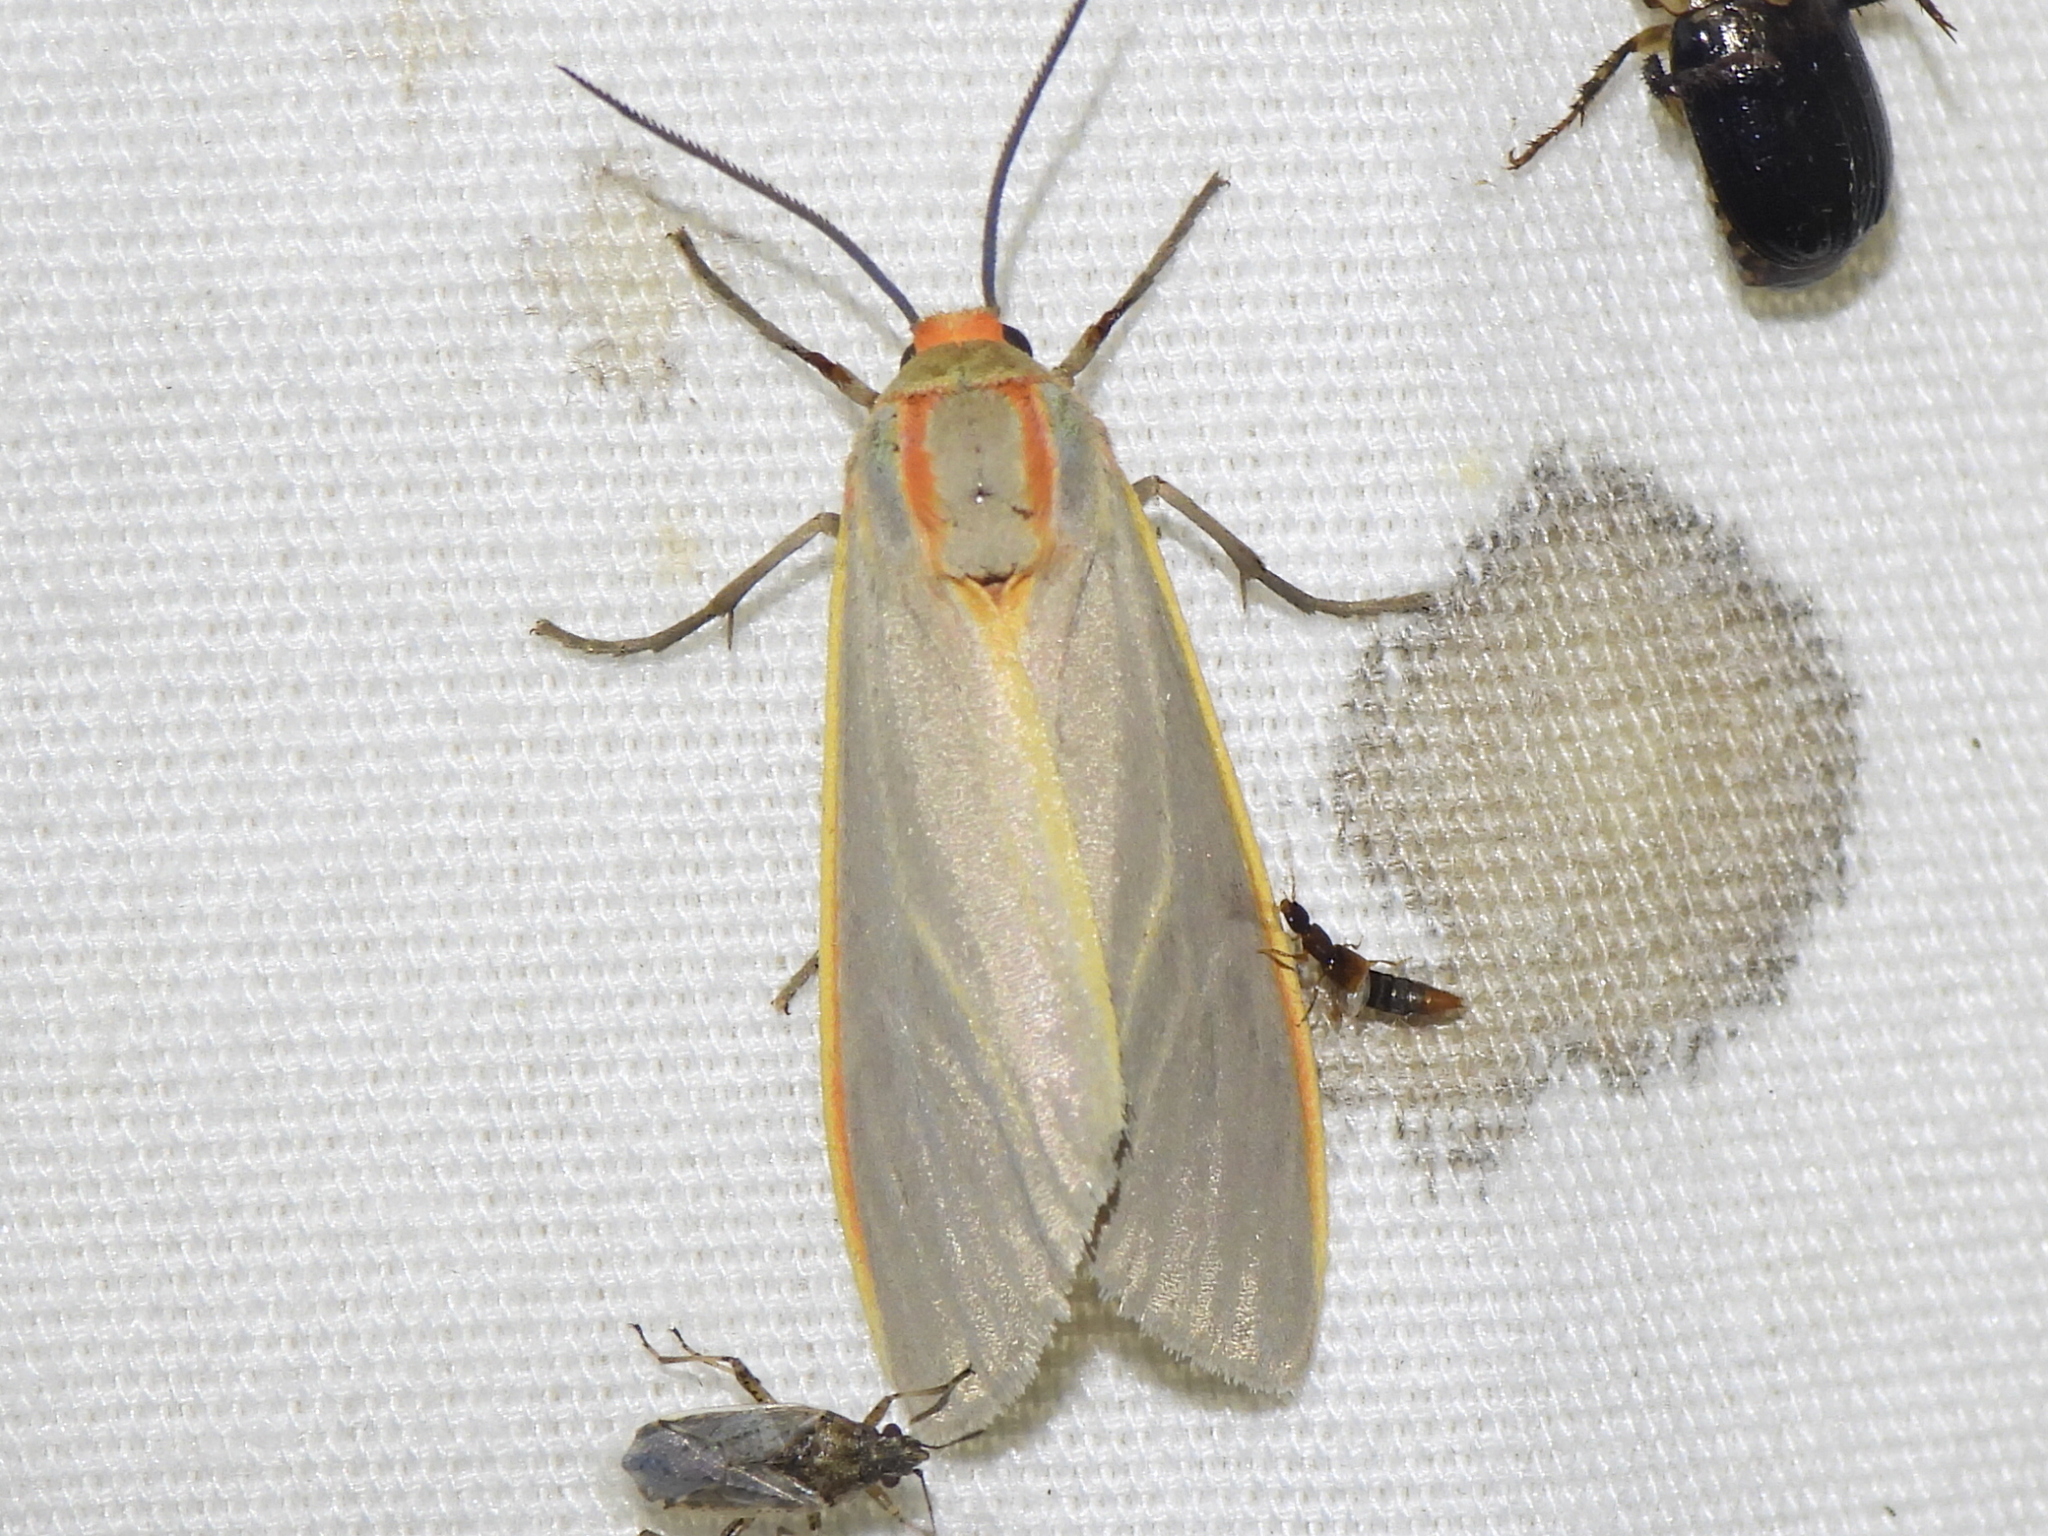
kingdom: Animalia
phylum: Arthropoda
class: Insecta
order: Lepidoptera
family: Erebidae
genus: Pygarctia
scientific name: Pygarctia abdominalis
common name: Yellow-edged pygarctia moth
